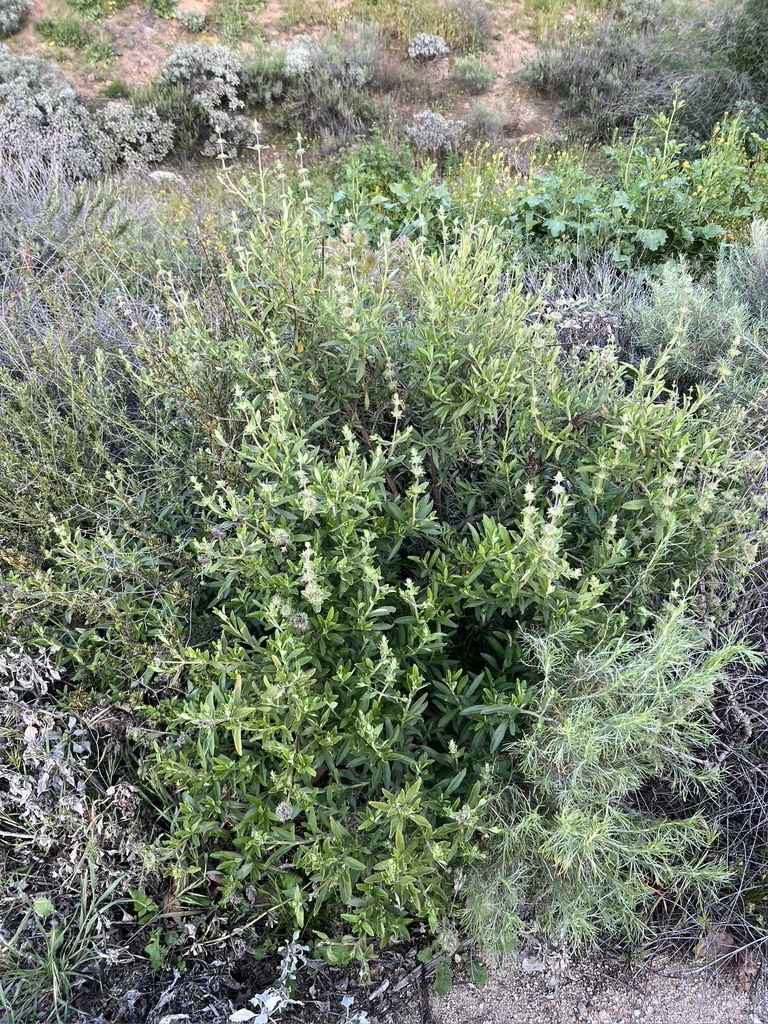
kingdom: Plantae
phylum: Tracheophyta
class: Magnoliopsida
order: Lamiales
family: Lamiaceae
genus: Salvia
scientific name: Salvia mellifera
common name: Black sage
